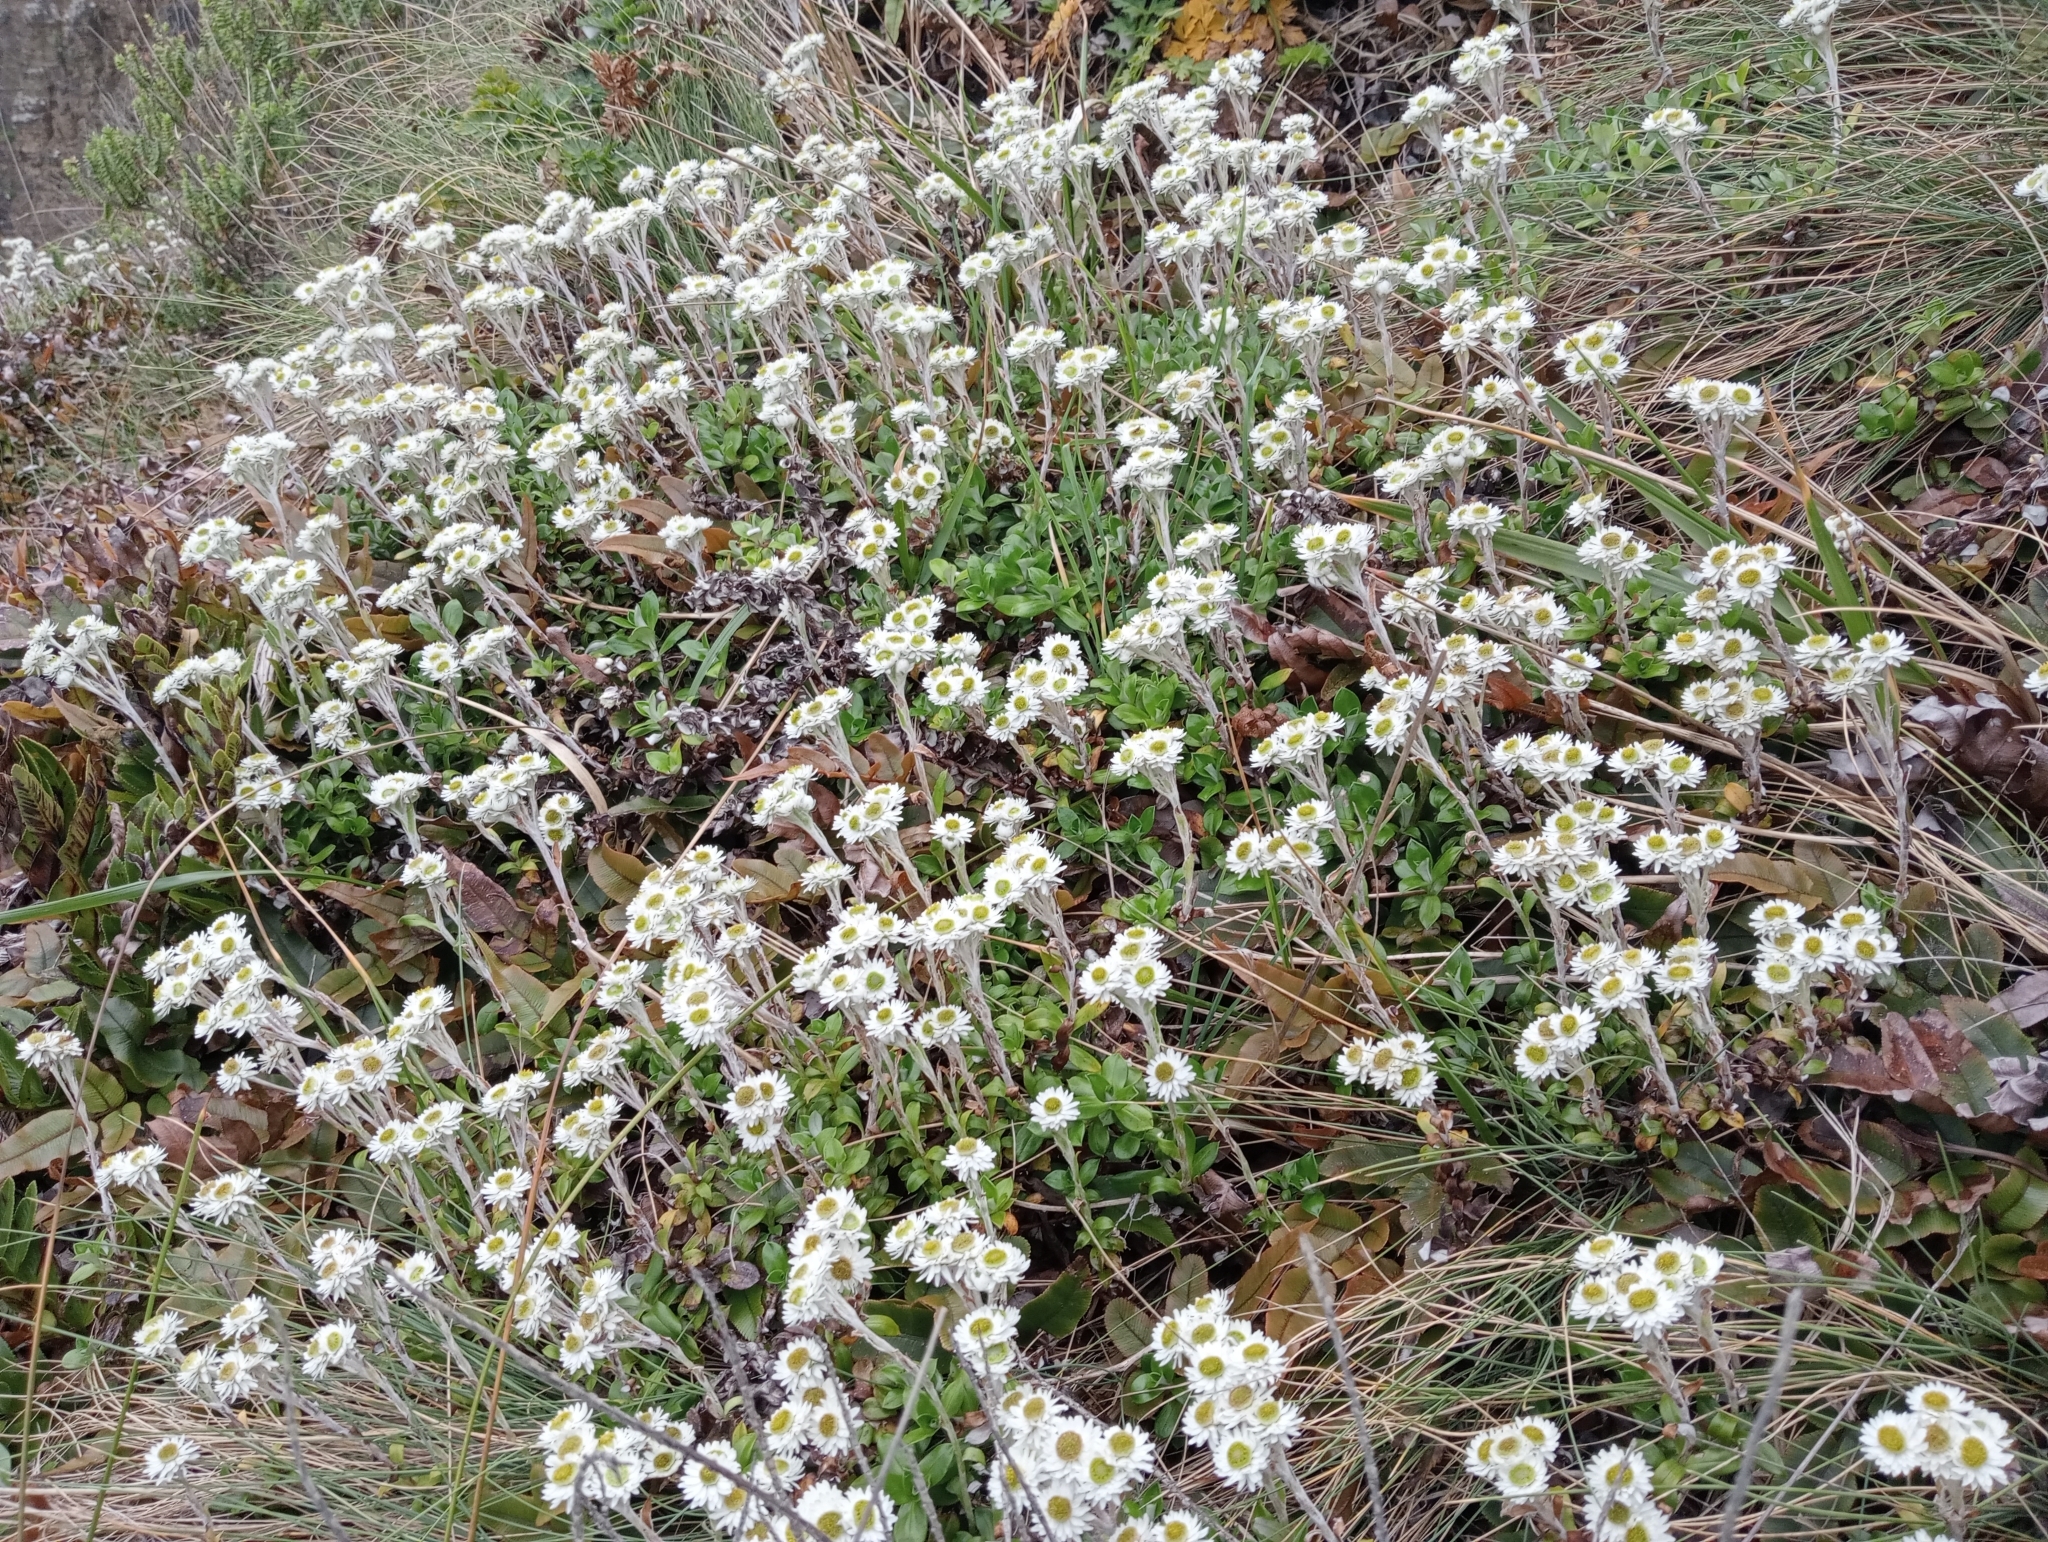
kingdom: Plantae
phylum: Tracheophyta
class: Magnoliopsida
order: Asterales
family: Asteraceae
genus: Anaphalioides
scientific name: Anaphalioides hookeri
